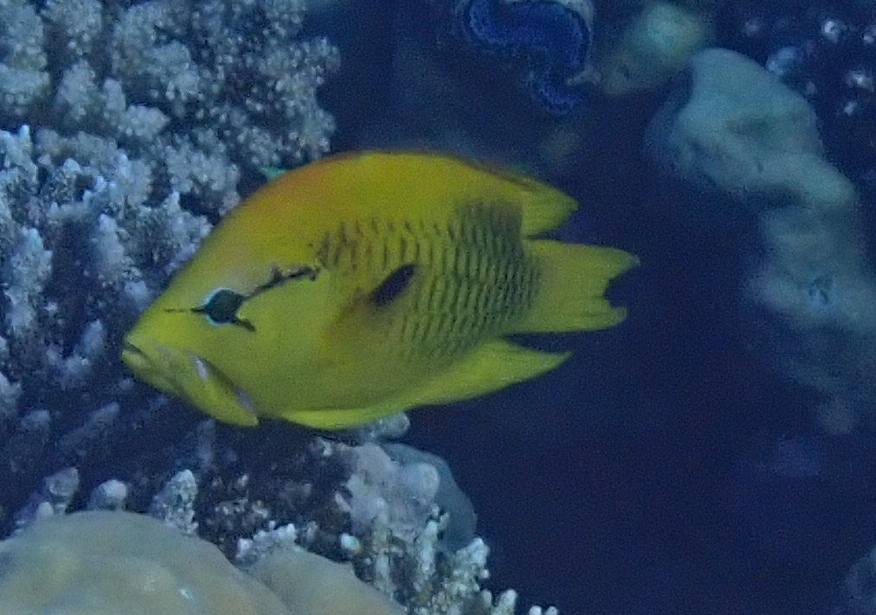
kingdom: Animalia
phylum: Chordata
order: Perciformes
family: Labridae
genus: Epibulus
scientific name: Epibulus insidiator
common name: Slingjaw wrasse
